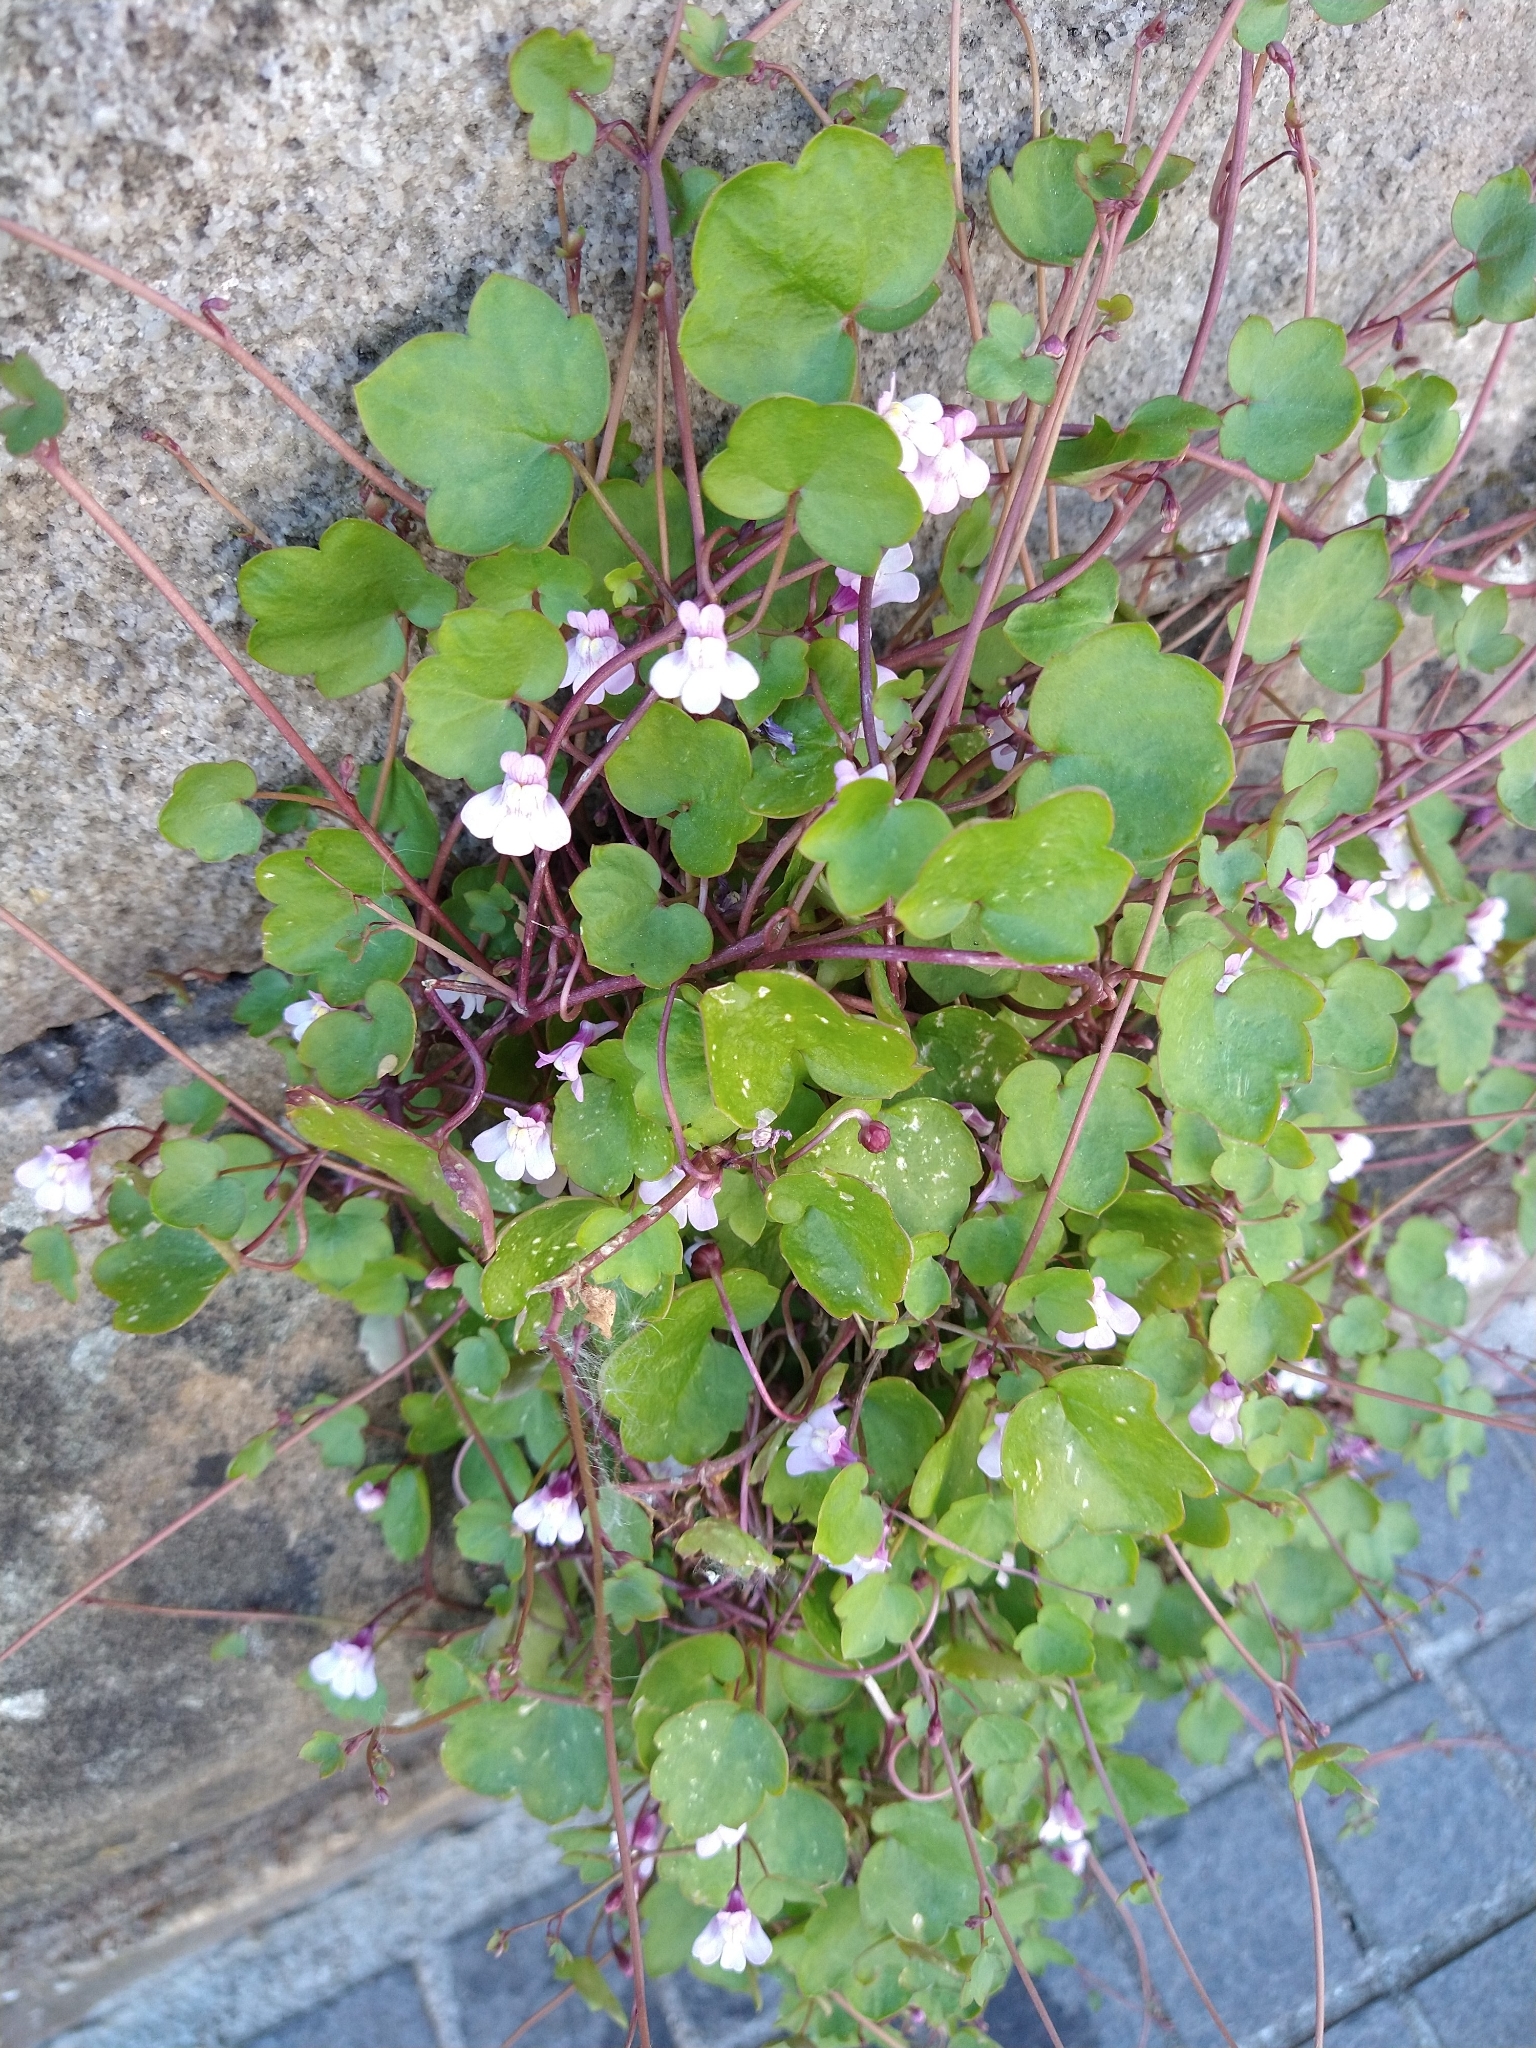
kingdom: Plantae
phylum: Tracheophyta
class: Magnoliopsida
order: Lamiales
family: Plantaginaceae
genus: Cymbalaria
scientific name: Cymbalaria muralis
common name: Ivy-leaved toadflax
